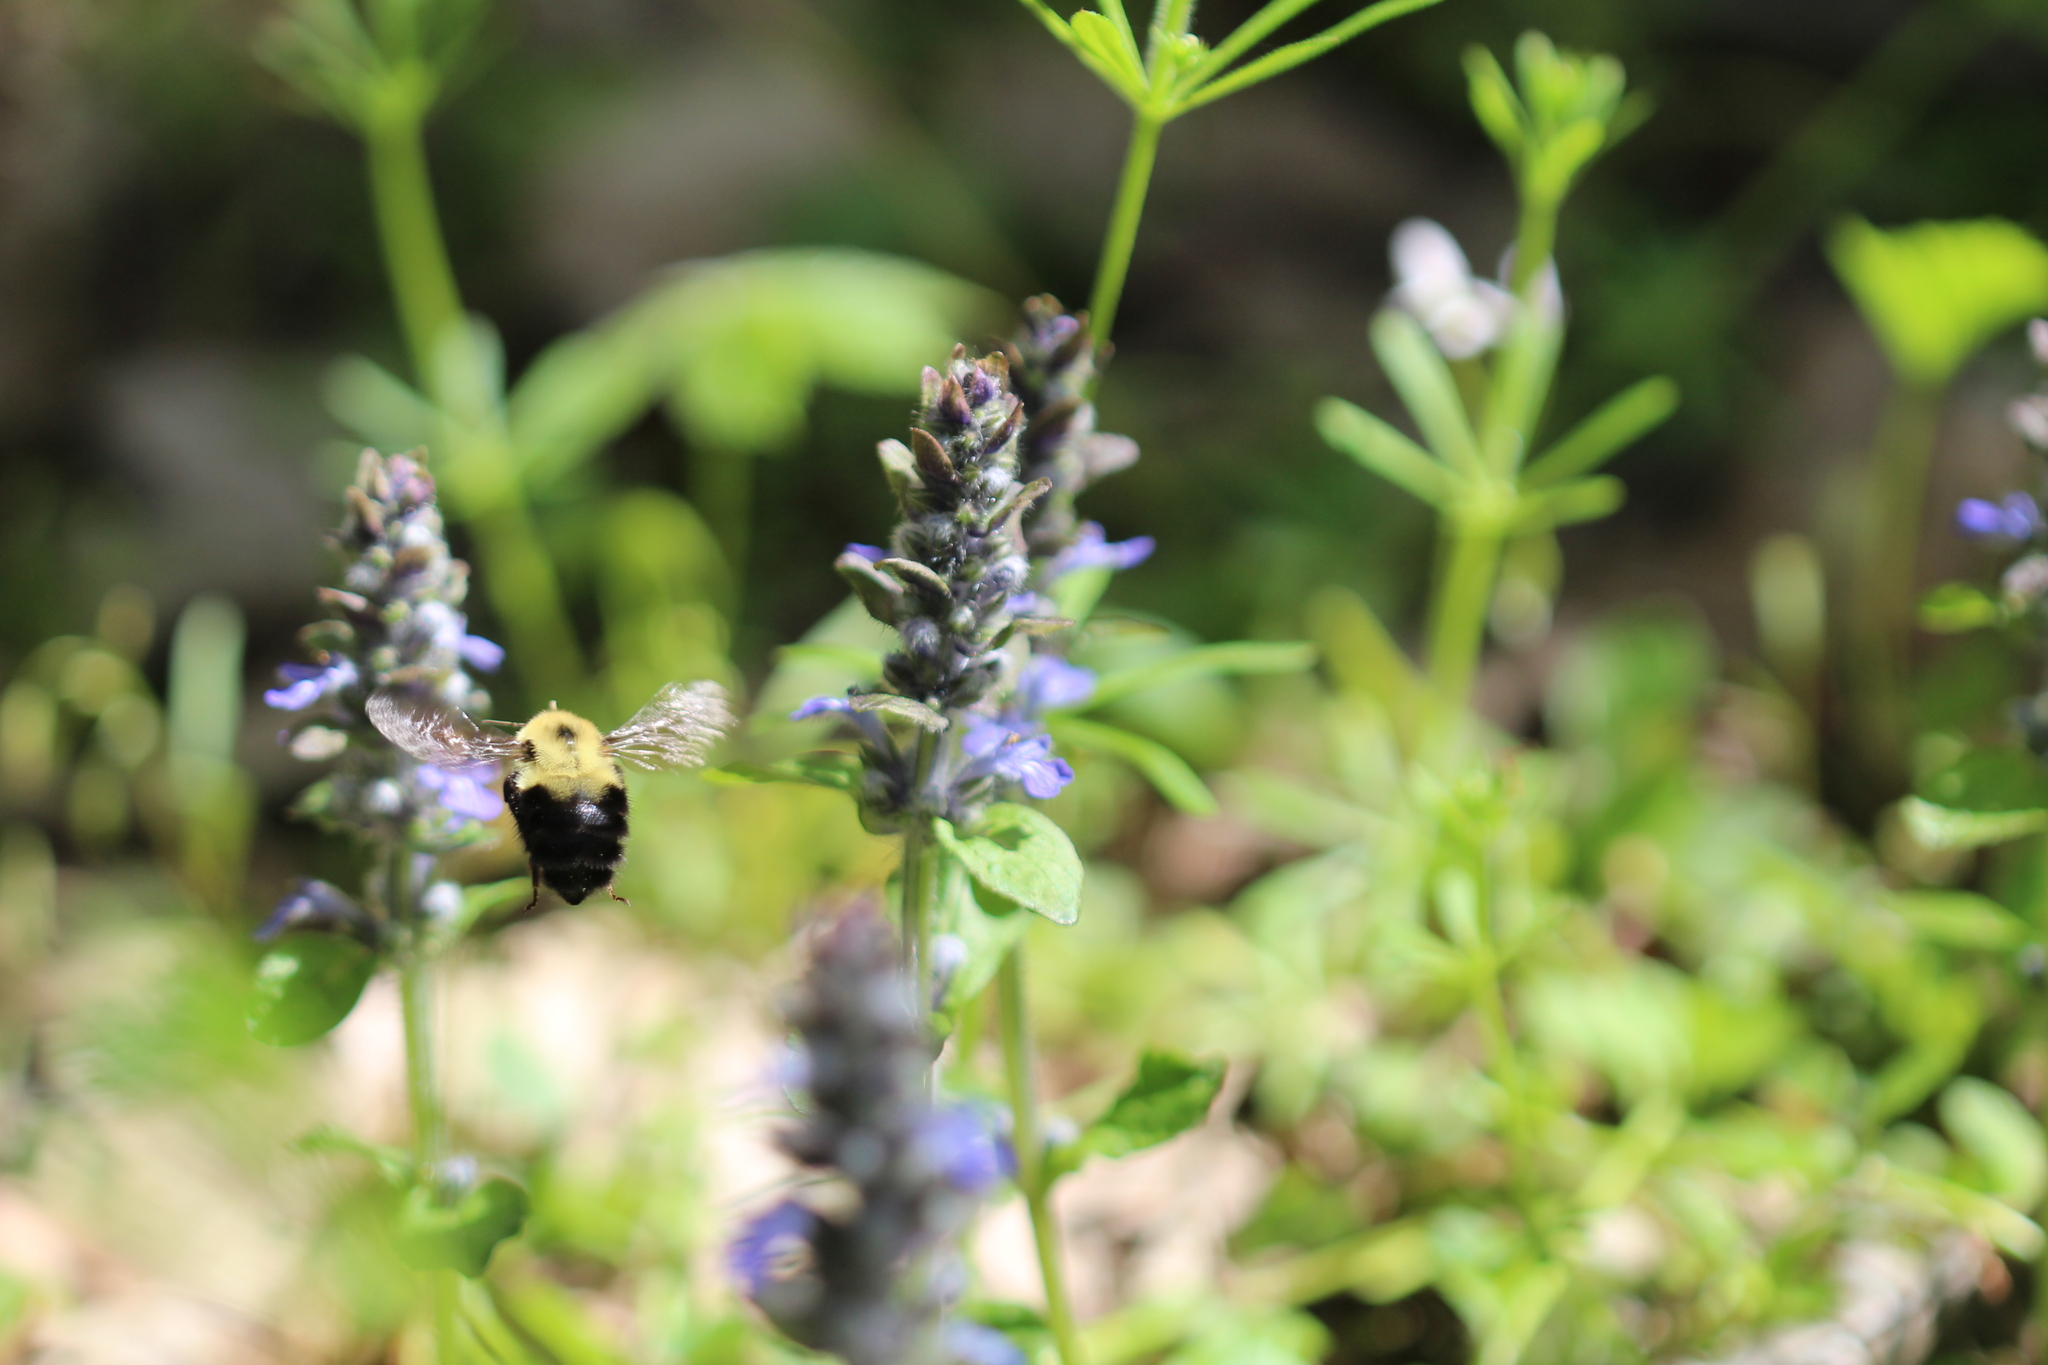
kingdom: Animalia
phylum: Arthropoda
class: Insecta
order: Hymenoptera
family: Apidae
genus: Bombus
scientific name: Bombus bimaculatus
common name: Two-spotted bumble bee
